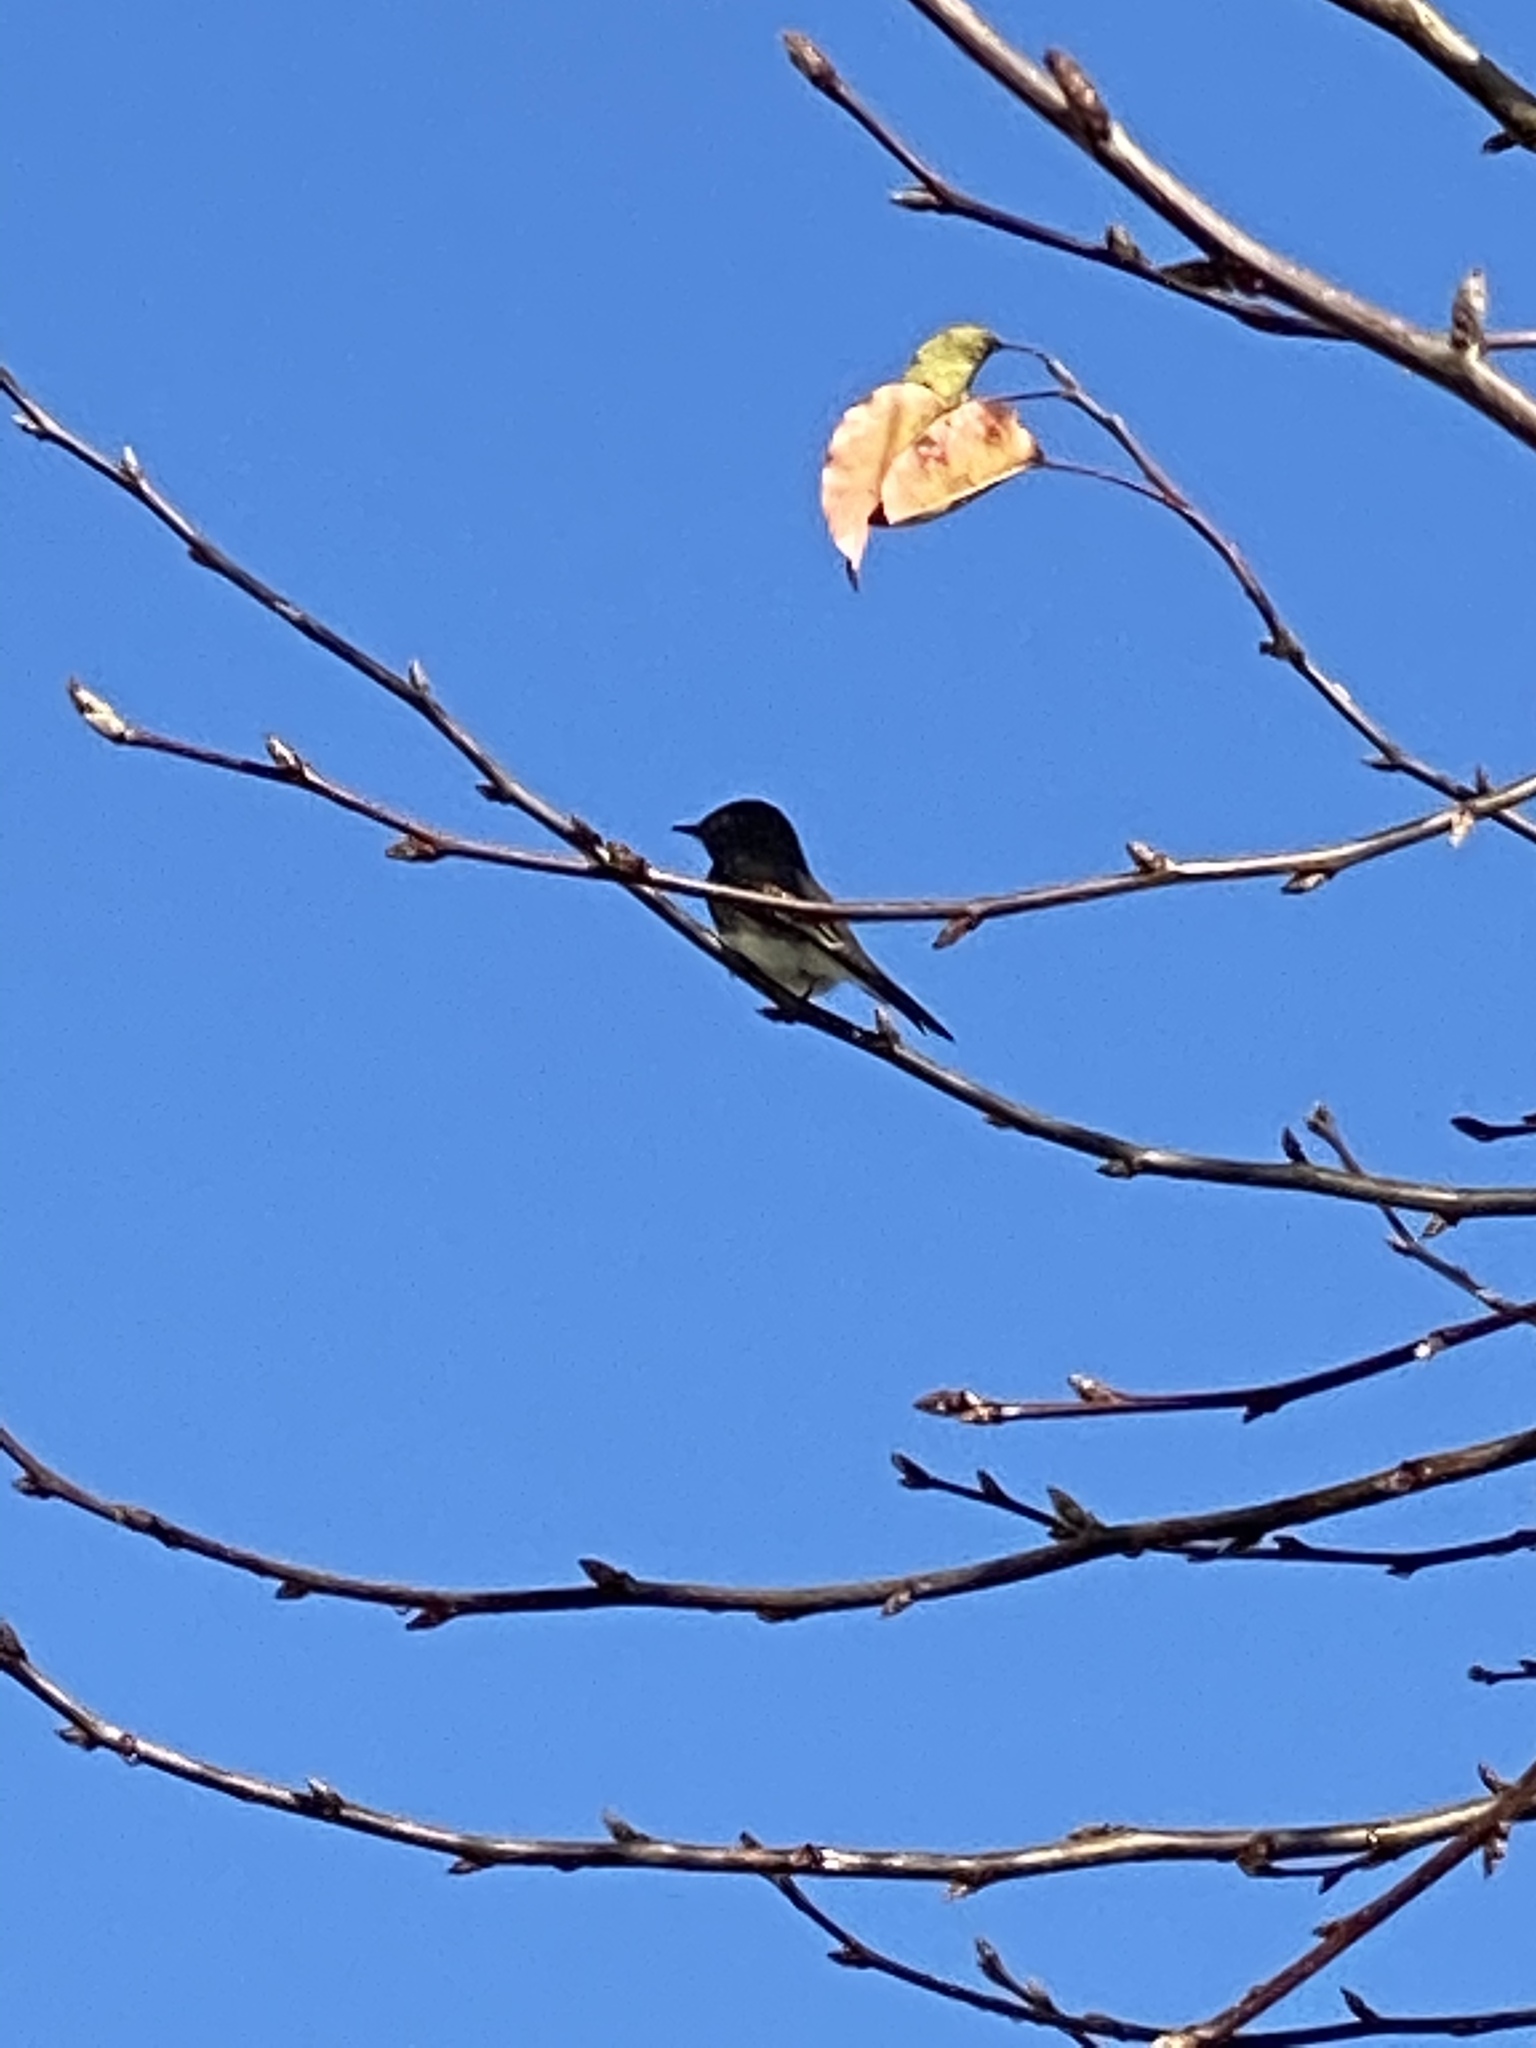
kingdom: Animalia
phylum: Chordata
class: Aves
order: Passeriformes
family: Tyrannidae
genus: Sayornis
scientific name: Sayornis nigricans
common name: Black phoebe
